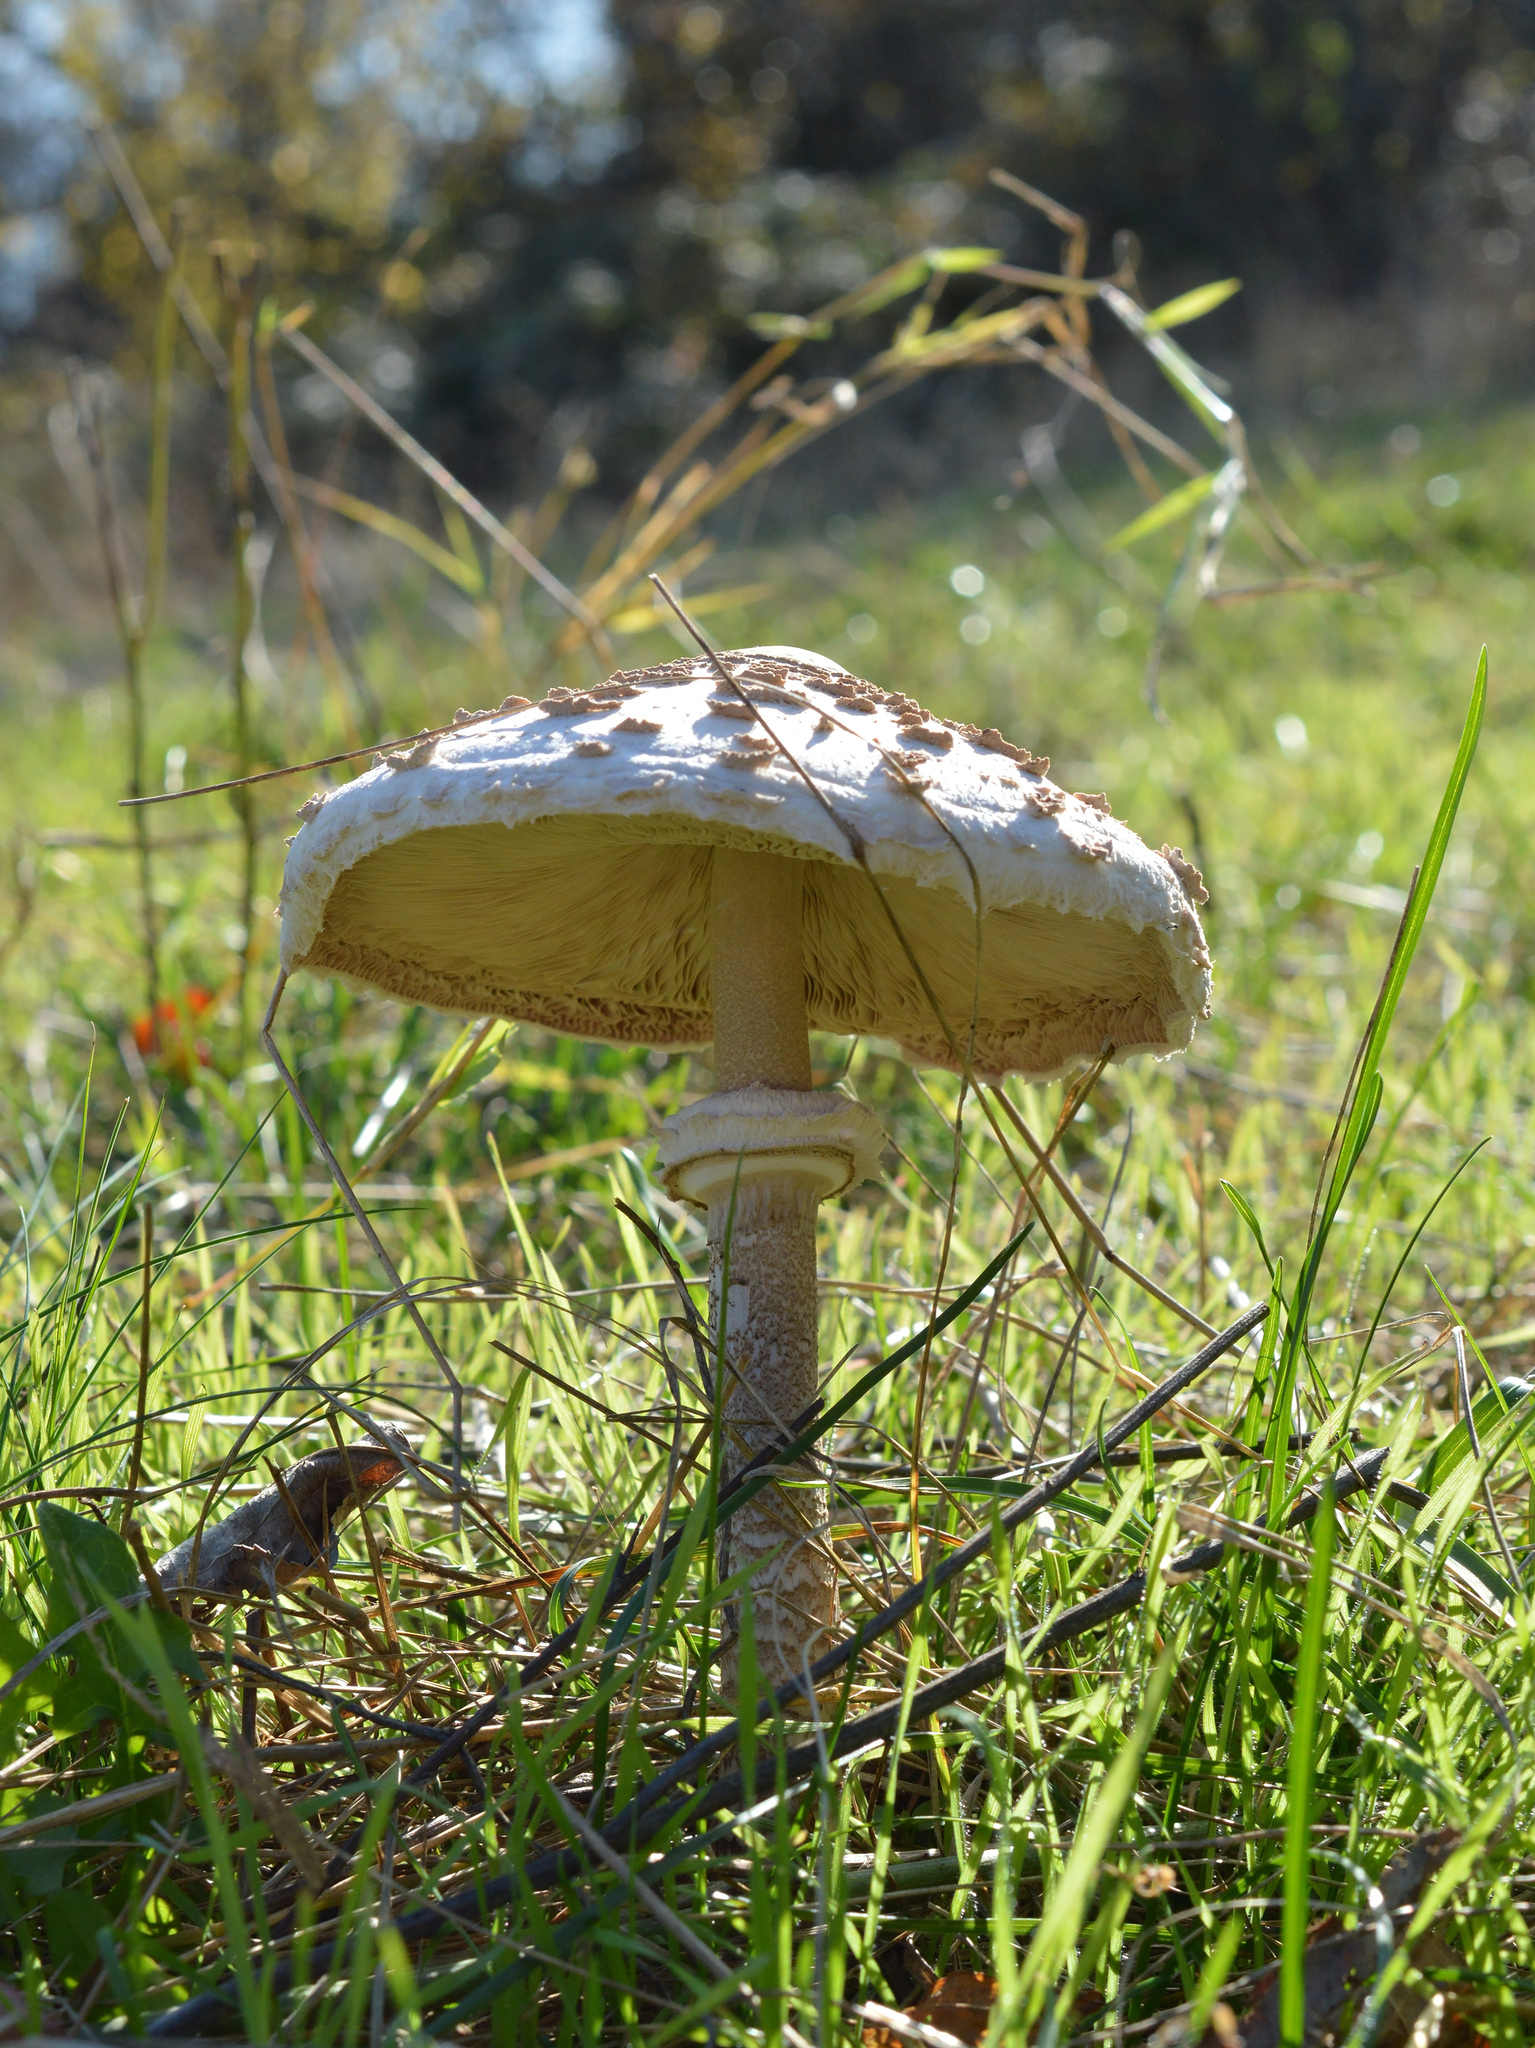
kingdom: Fungi
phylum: Basidiomycota
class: Agaricomycetes
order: Agaricales
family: Agaricaceae
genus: Macrolepiota
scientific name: Macrolepiota procera
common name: Parasol
